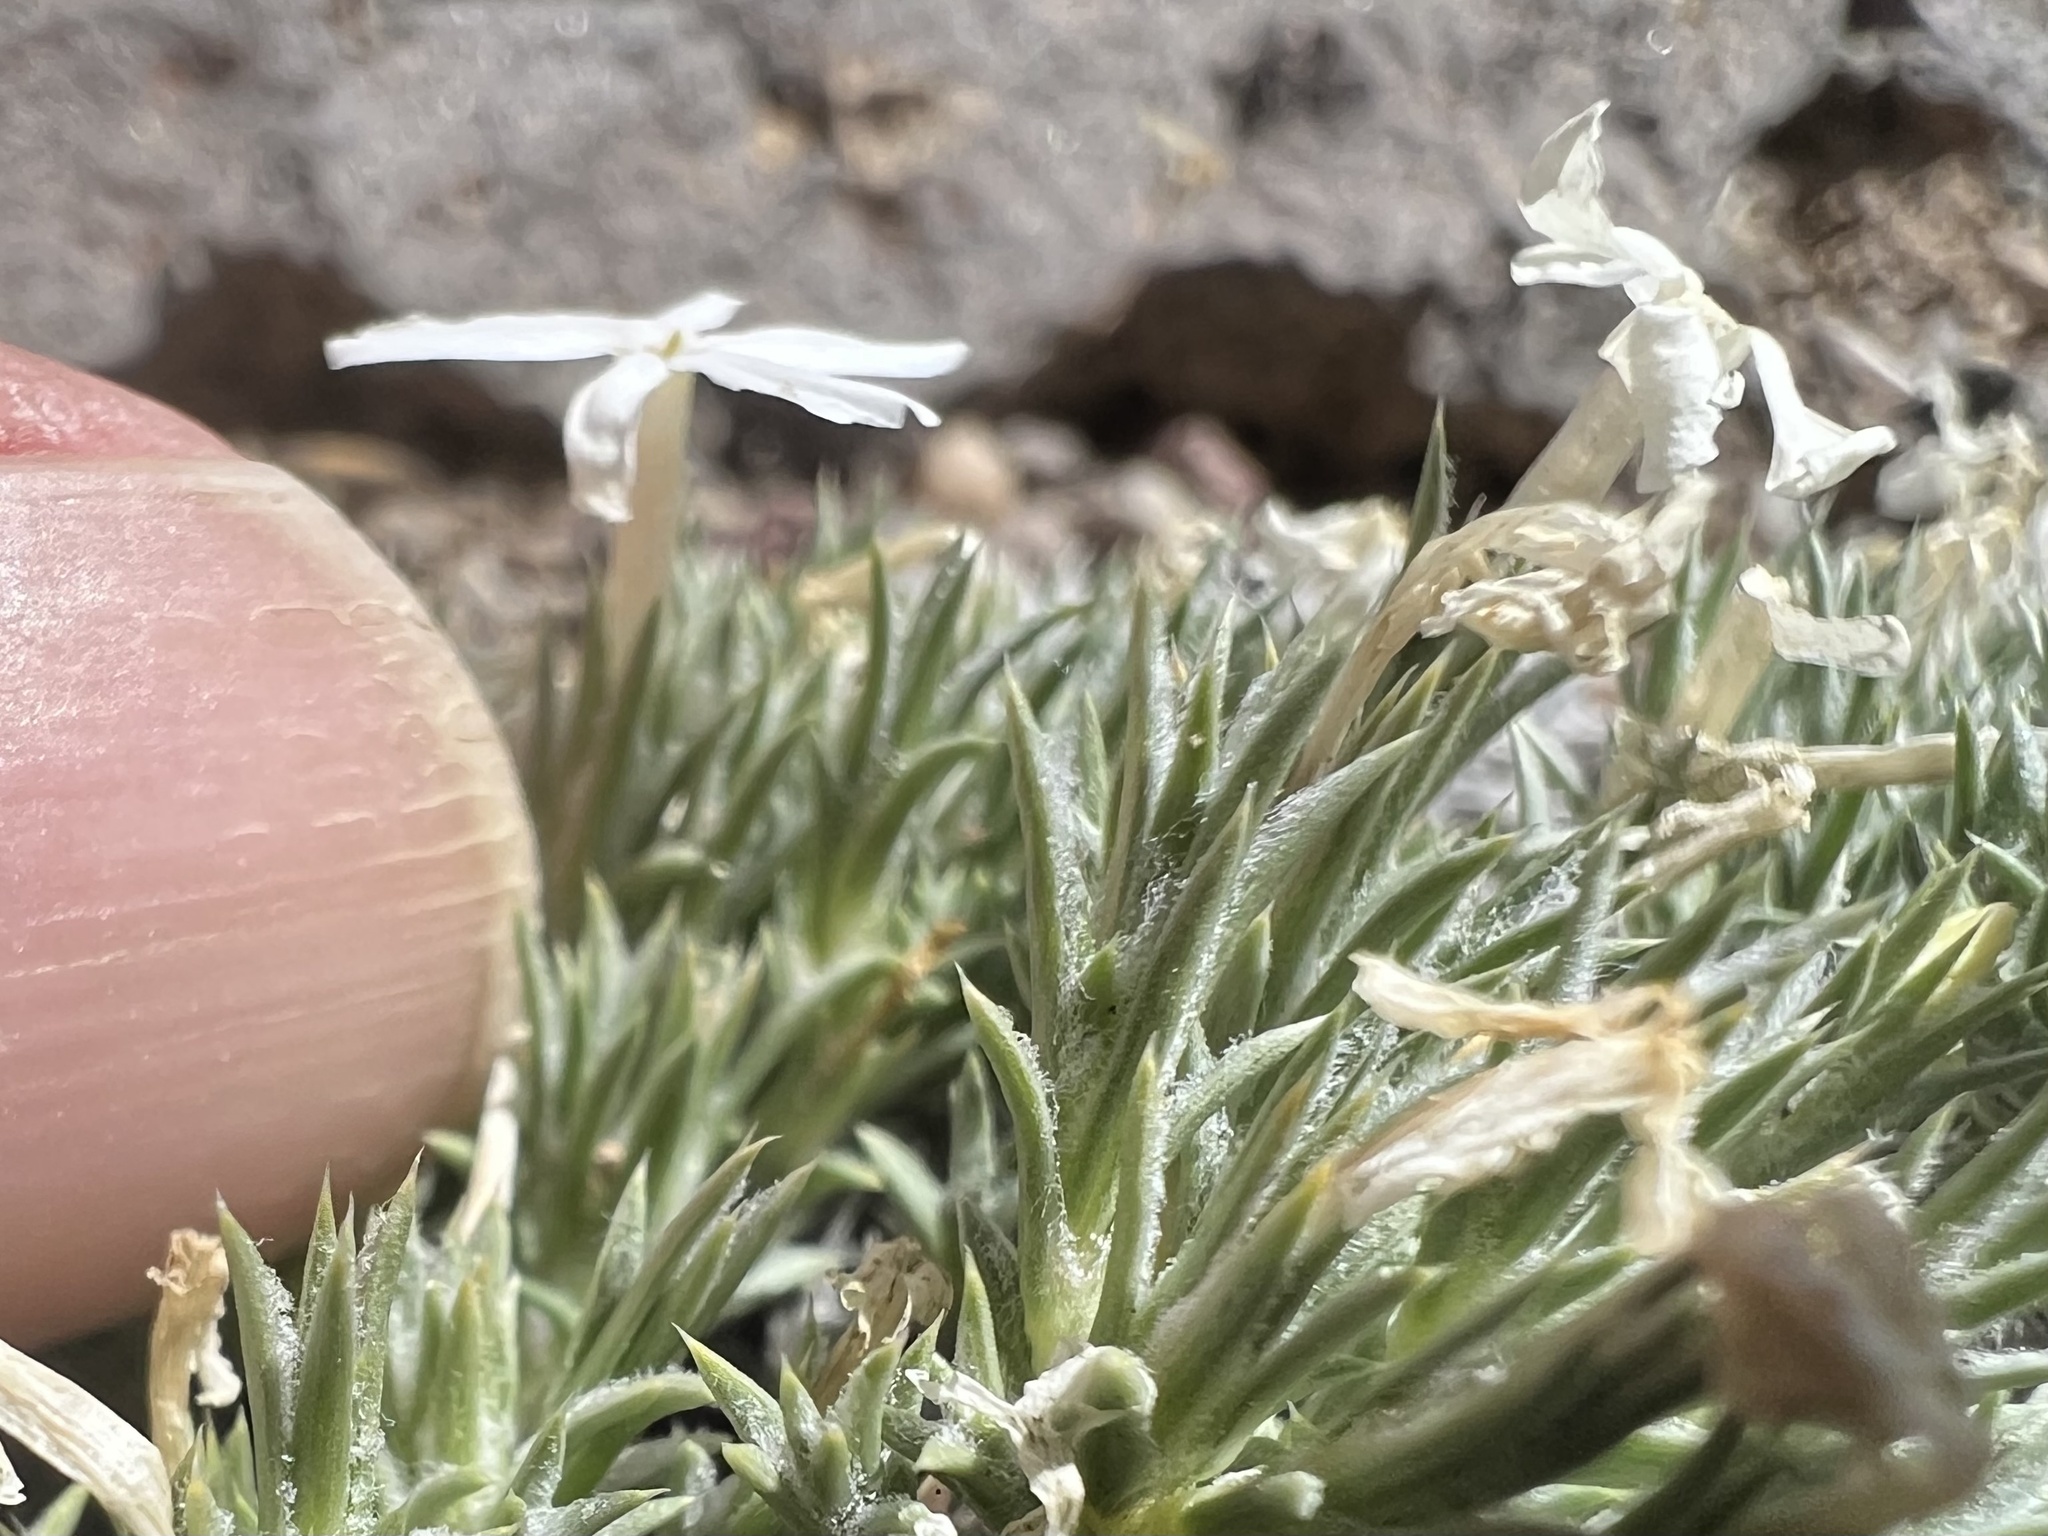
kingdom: Plantae
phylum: Tracheophyta
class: Magnoliopsida
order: Ericales
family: Polemoniaceae
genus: Phlox
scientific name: Phlox hoodii
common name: Moss phlox
